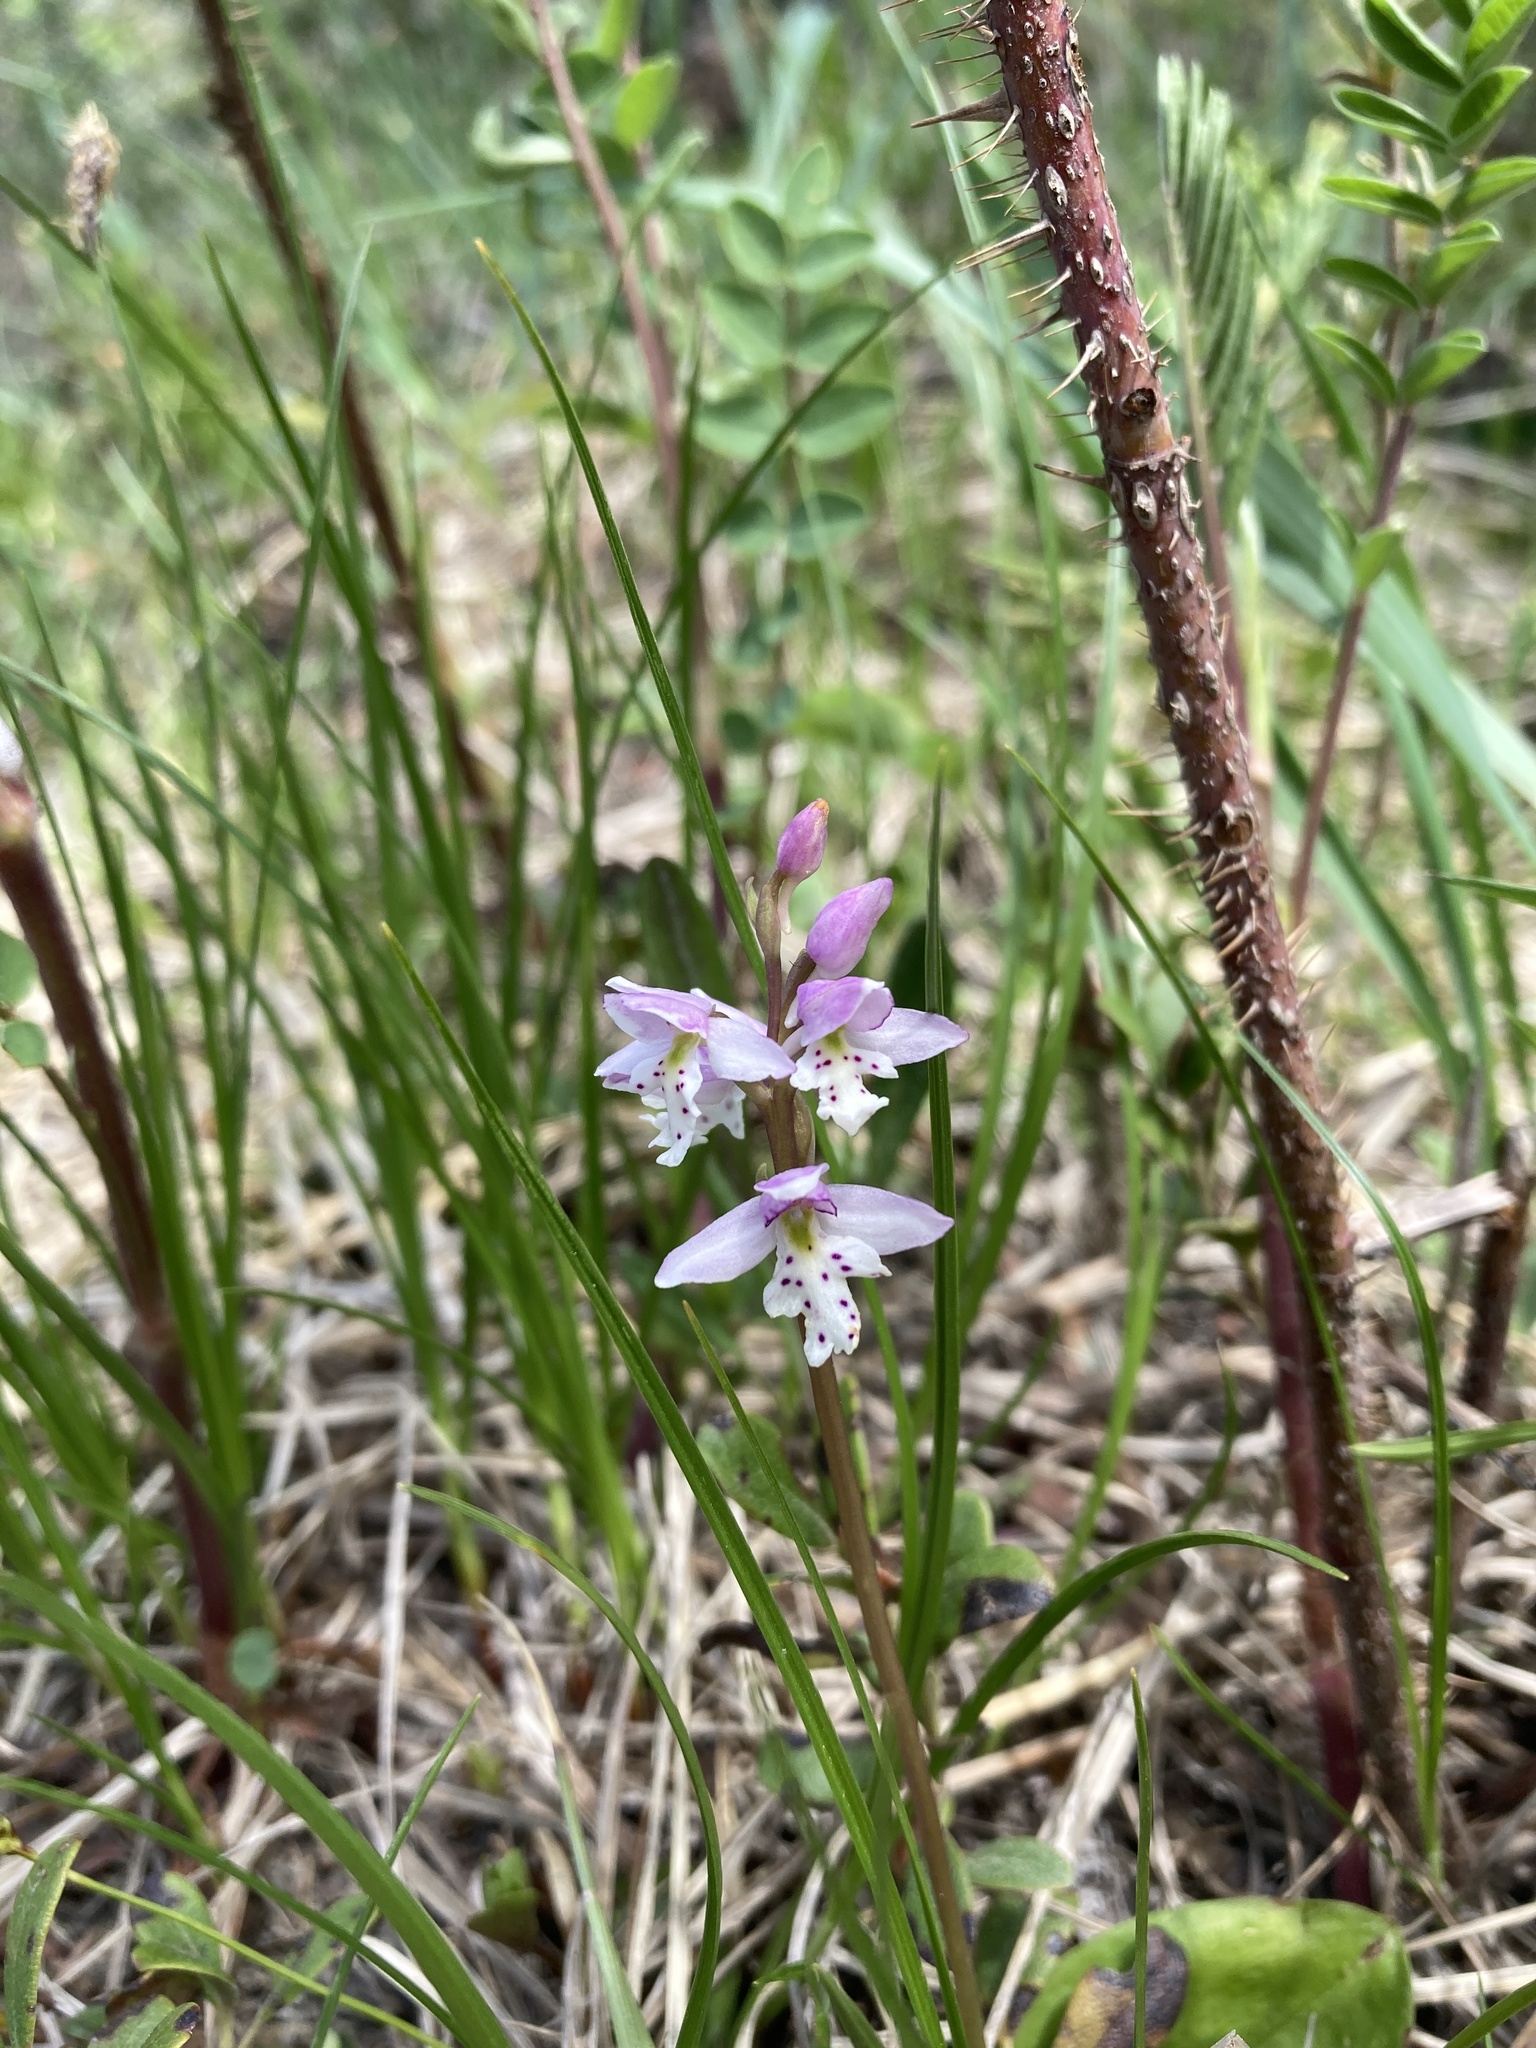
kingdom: Plantae
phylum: Tracheophyta
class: Liliopsida
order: Asparagales
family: Orchidaceae
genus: Galearis
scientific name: Galearis rotundifolia
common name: One-leaved orchis
